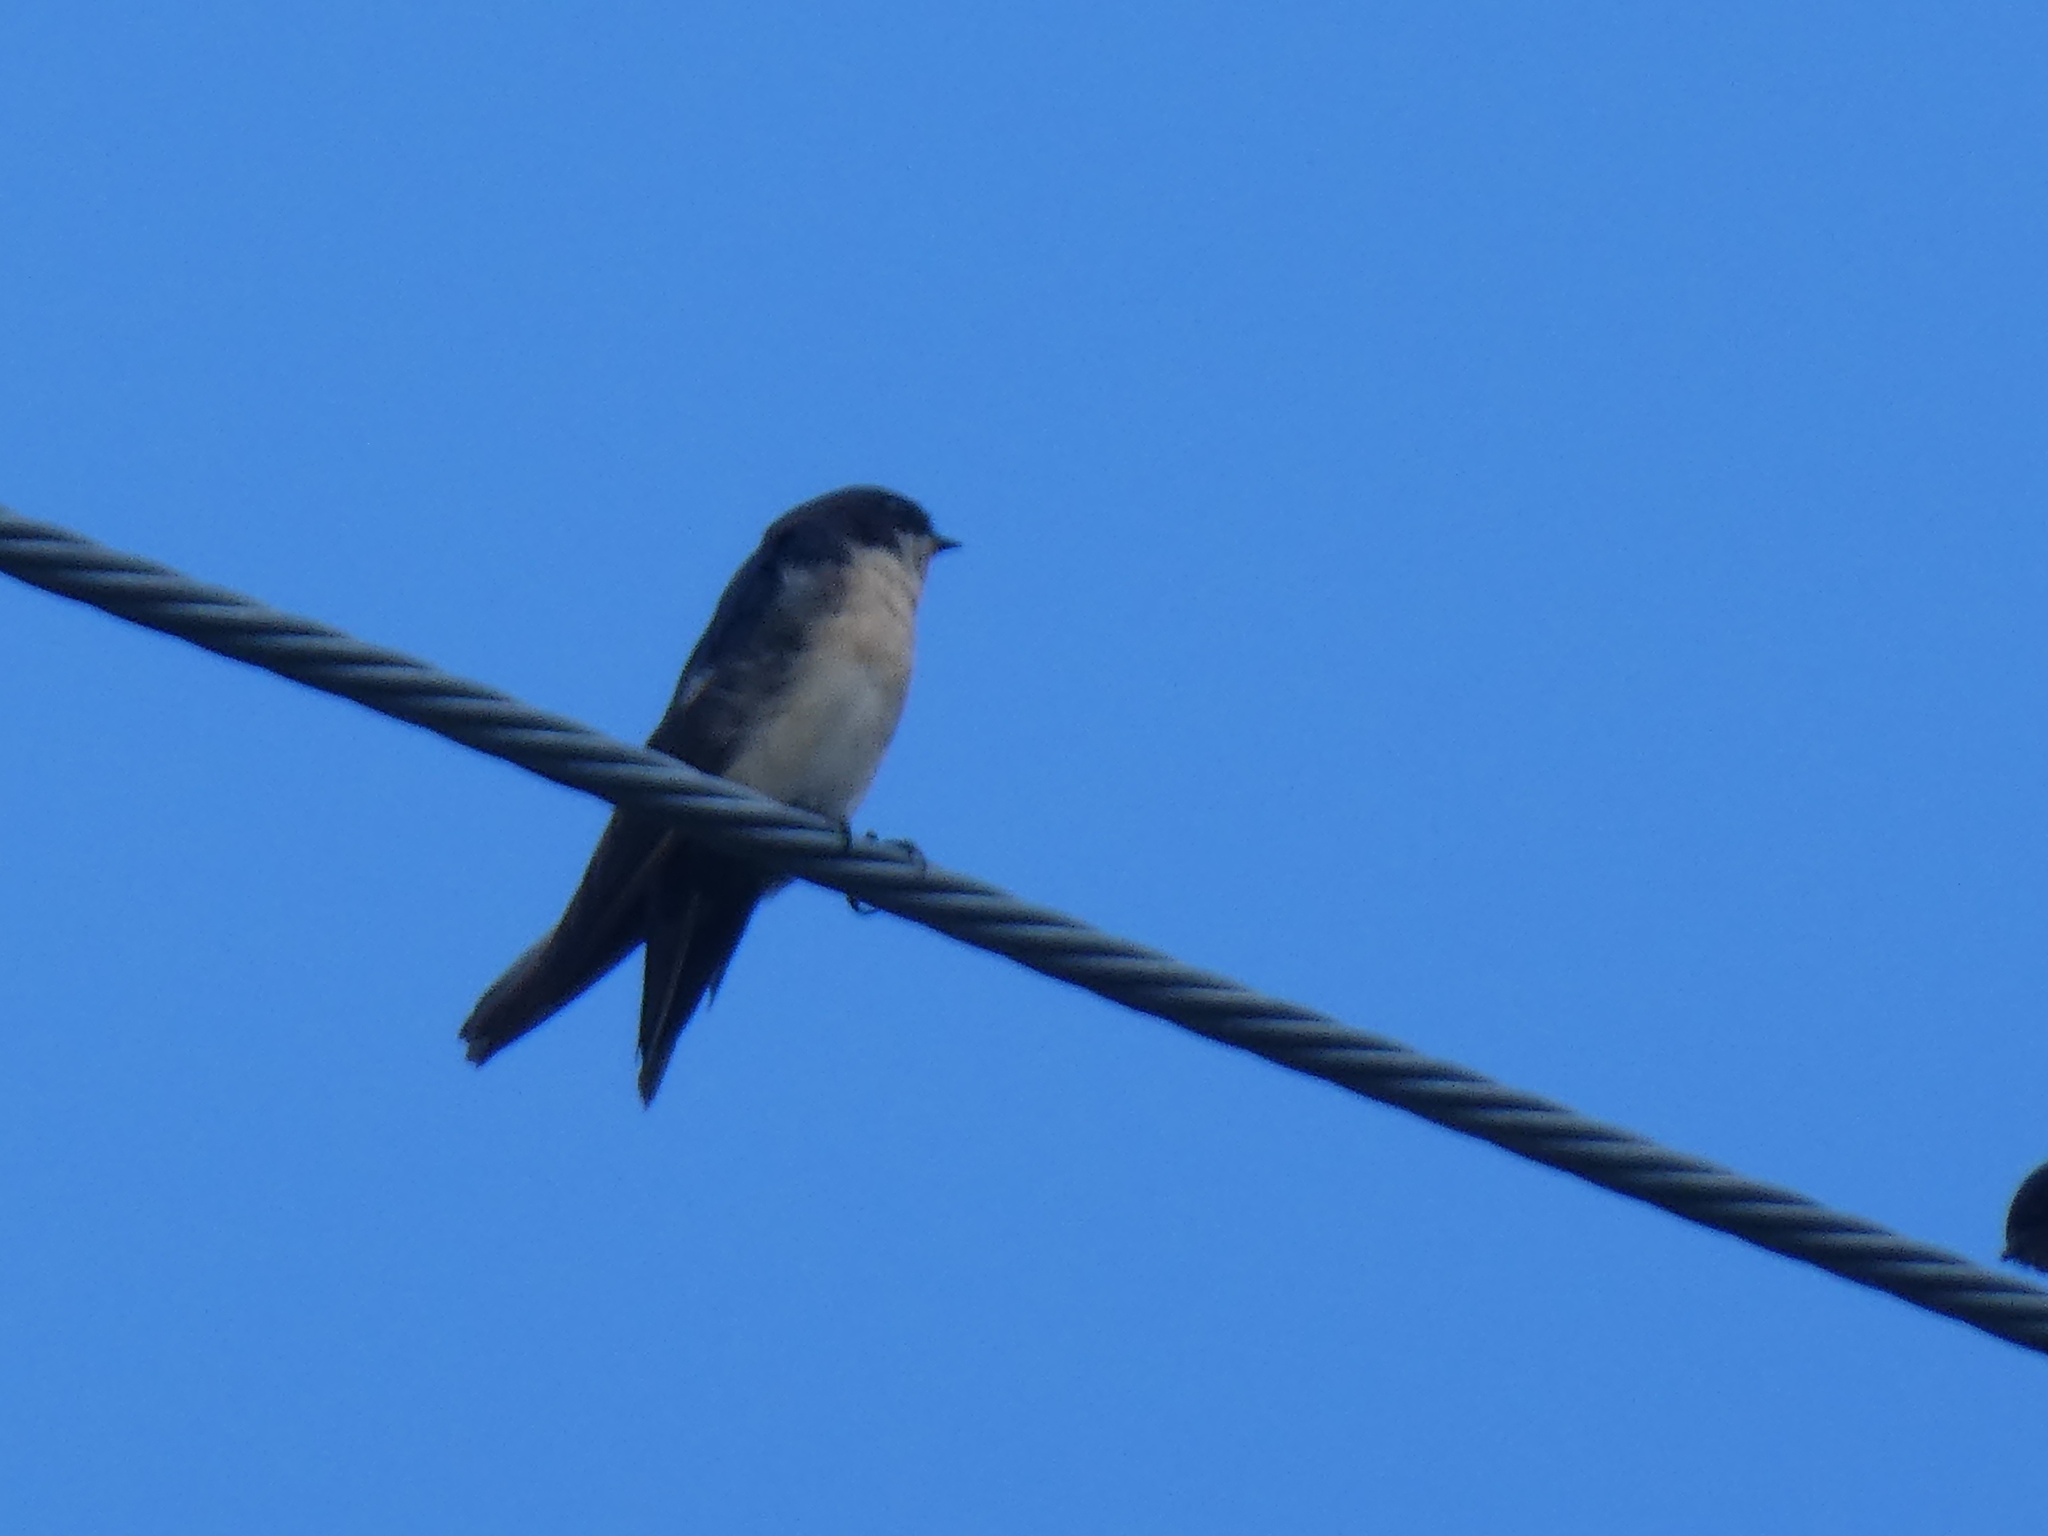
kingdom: Animalia
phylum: Chordata
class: Aves
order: Passeriformes
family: Hirundinidae
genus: Notiochelidon
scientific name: Notiochelidon cyanoleuca
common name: Blue-and-white swallow
